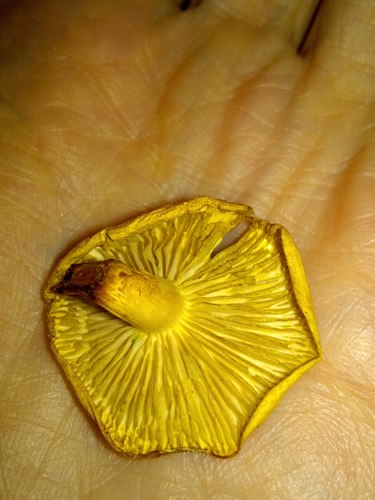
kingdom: Fungi
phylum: Basidiomycota
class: Agaricomycetes
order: Agaricales
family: Strophariaceae
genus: Hypholoma
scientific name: Hypholoma radicosum
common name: Rooting brownie
